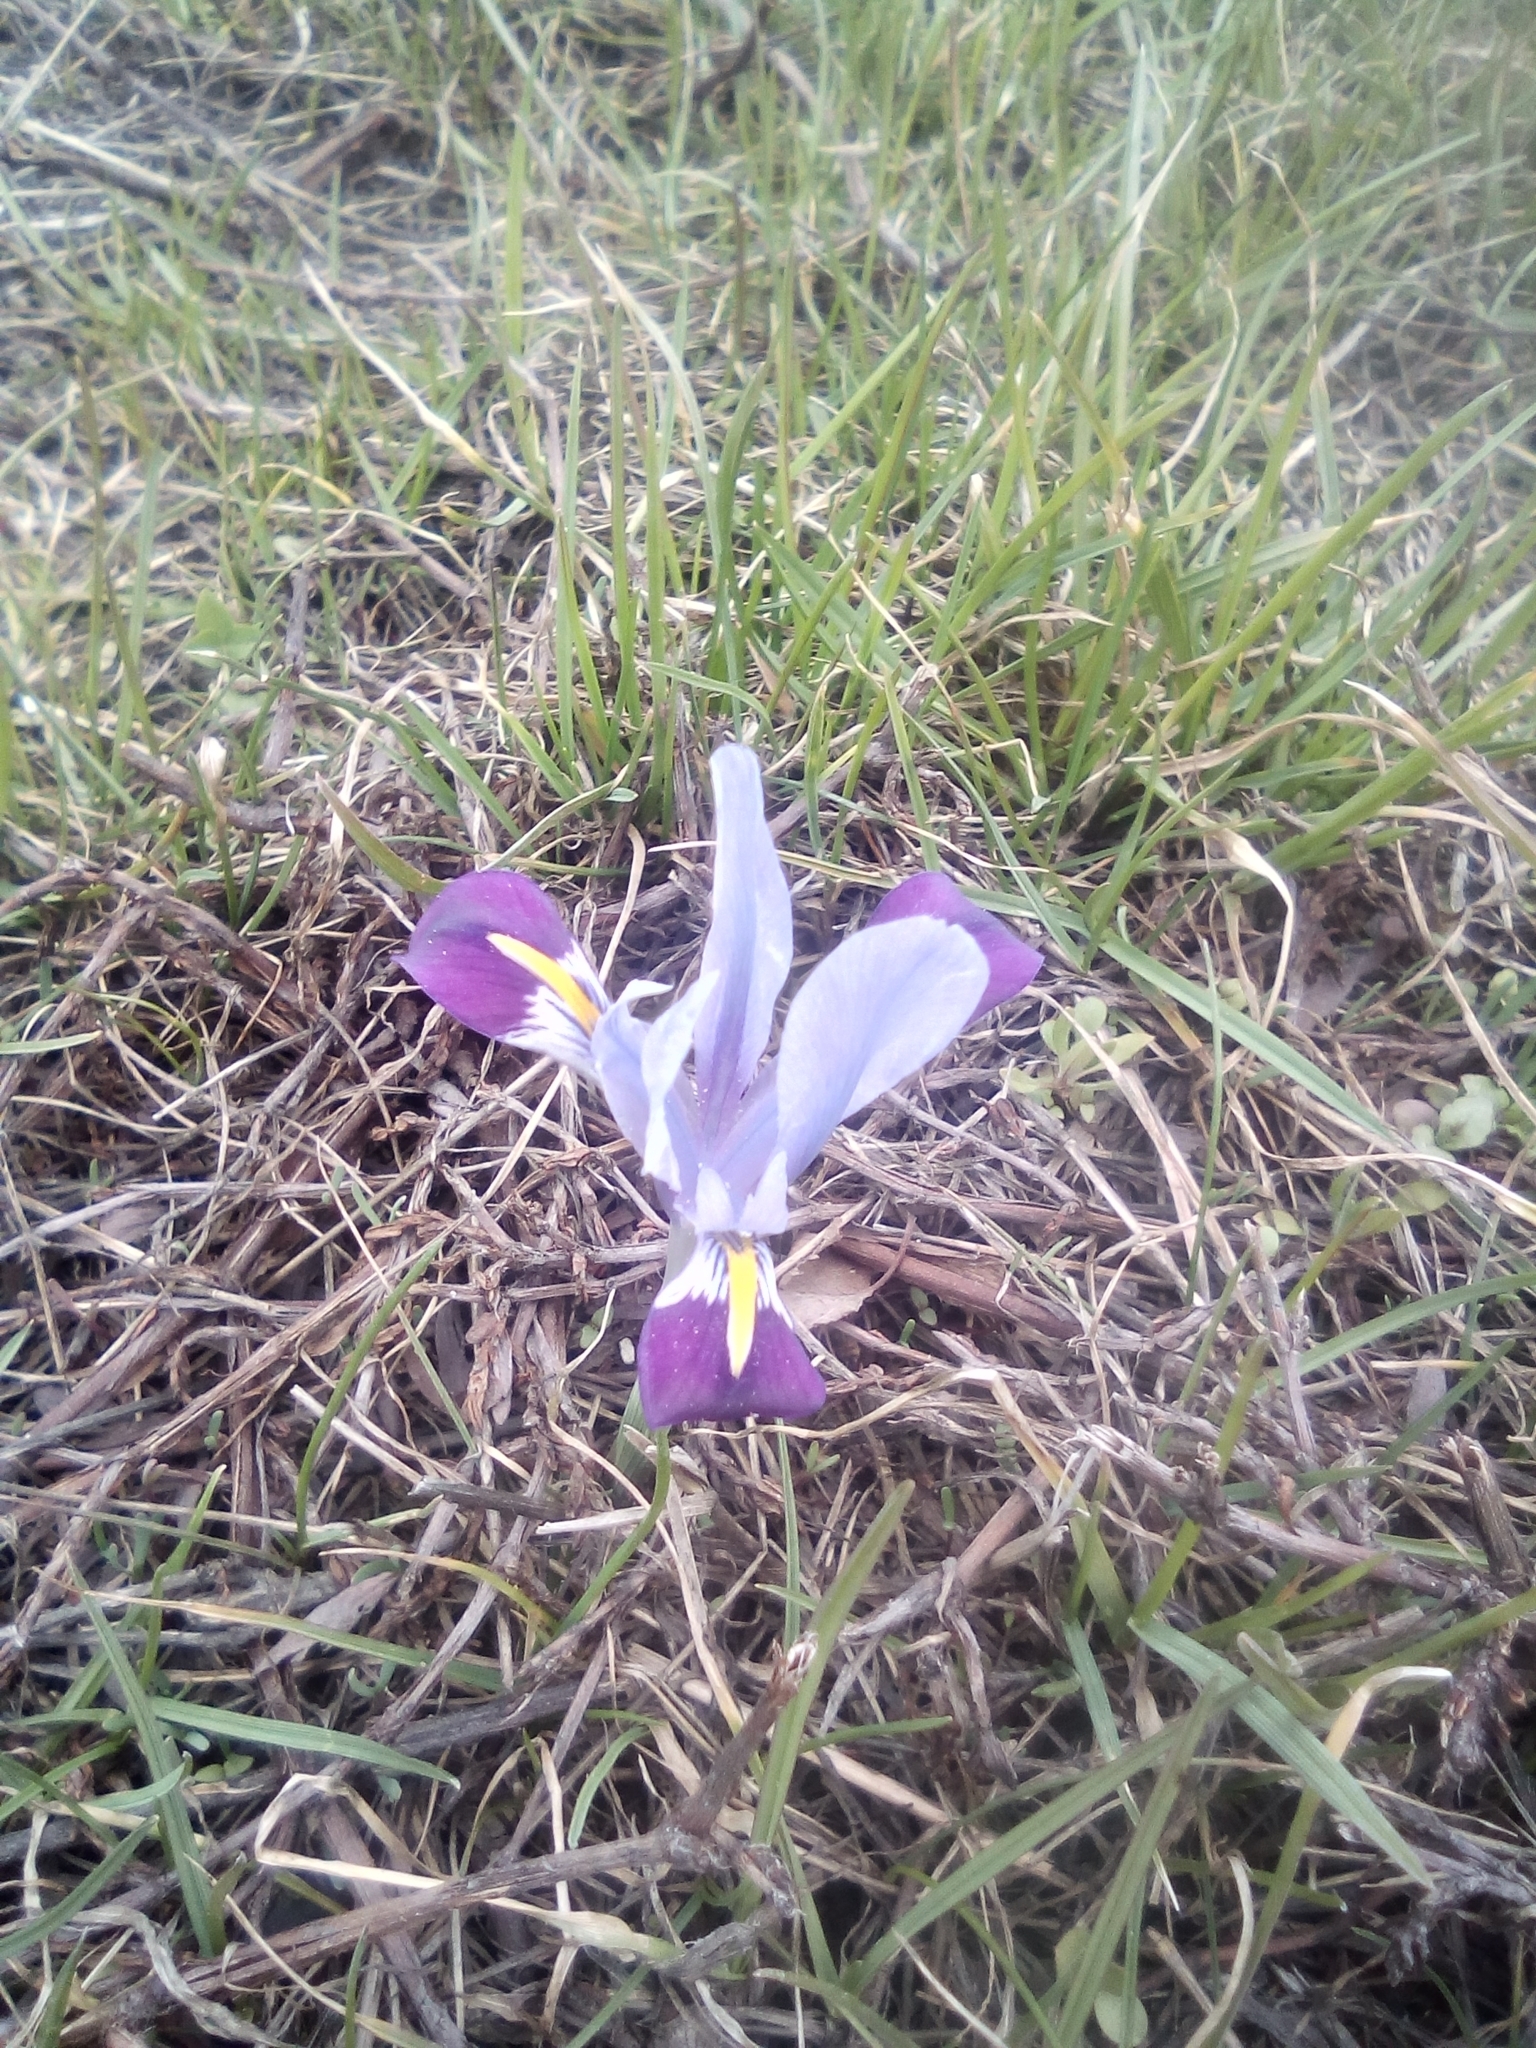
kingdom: Plantae
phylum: Tracheophyta
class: Liliopsida
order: Asparagales
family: Iridaceae
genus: Iris
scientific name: Iris kolpakowskiana
